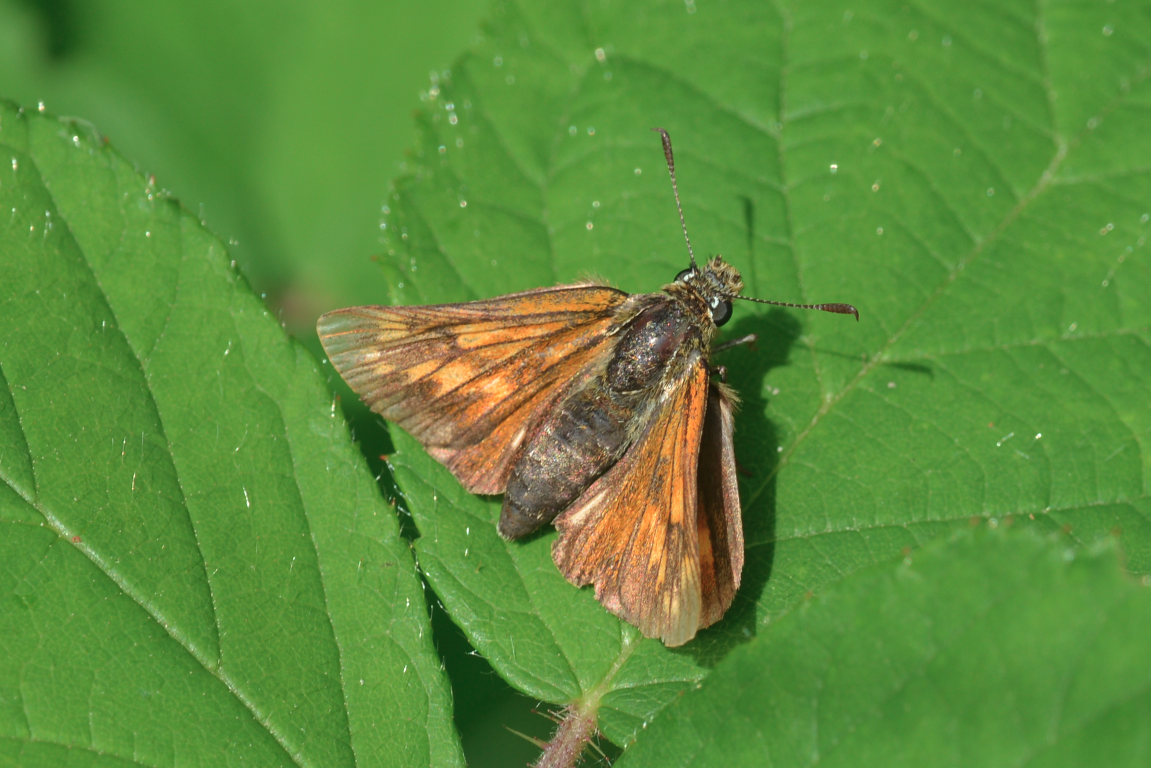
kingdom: Animalia
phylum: Arthropoda
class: Insecta
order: Lepidoptera
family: Hesperiidae
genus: Ochlodes
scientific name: Ochlodes venata
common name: Large skipper
